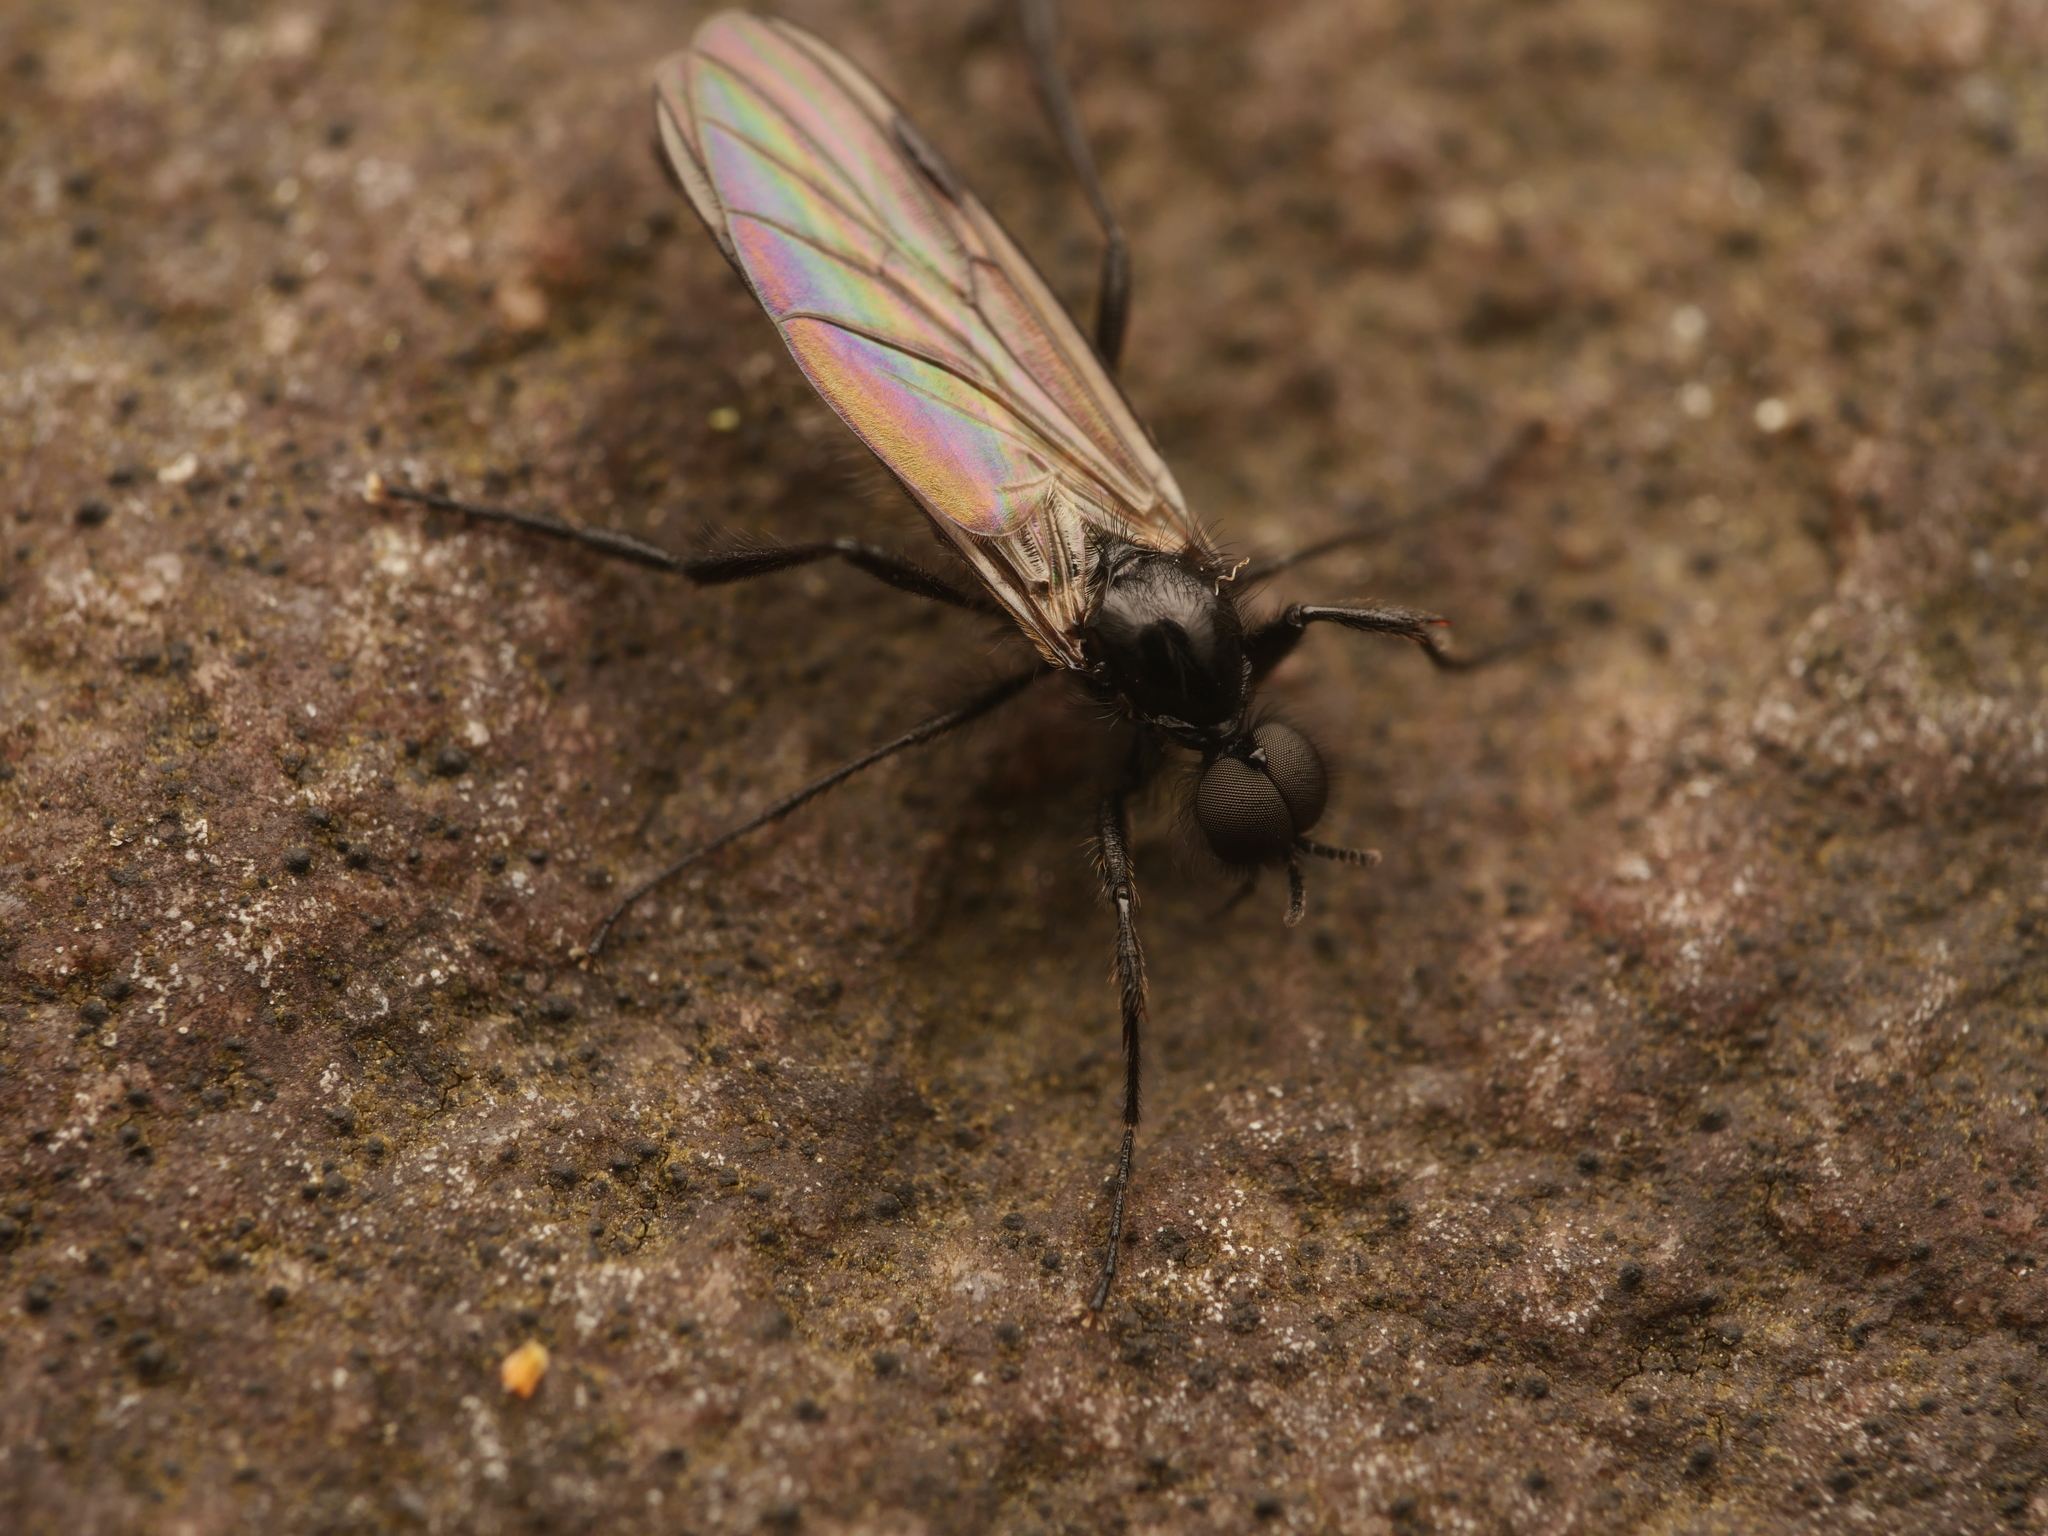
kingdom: Animalia
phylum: Arthropoda
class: Insecta
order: Diptera
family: Bibionidae
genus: Bibio
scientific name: Bibio slossonae
